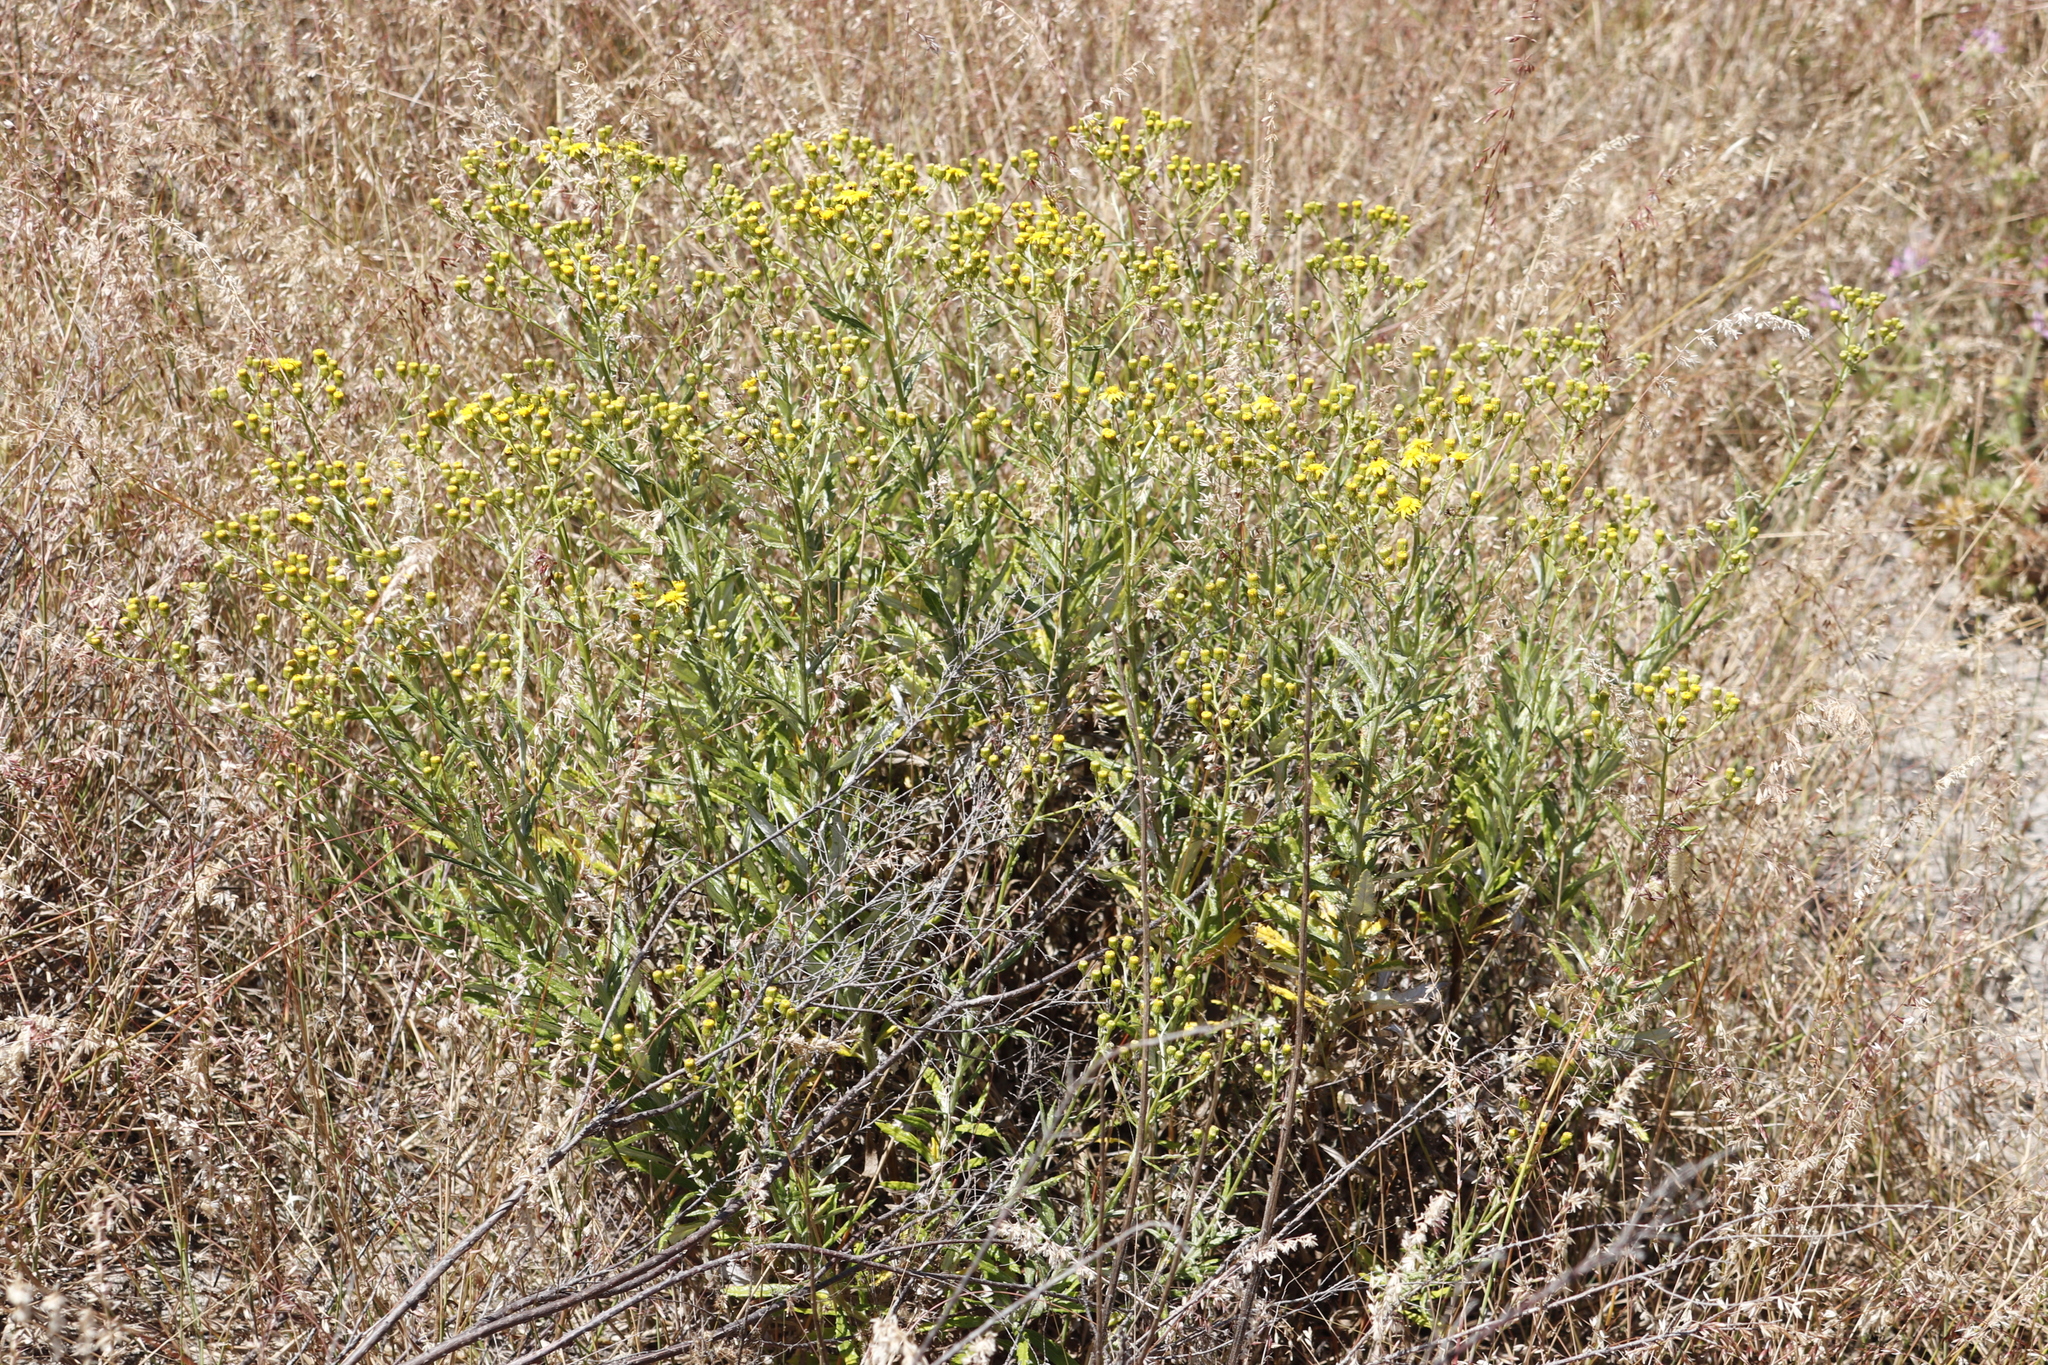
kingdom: Plantae
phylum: Tracheophyta
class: Magnoliopsida
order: Asterales
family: Asteraceae
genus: Senecio
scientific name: Senecio pterophorus
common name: Shoddy ragwort
